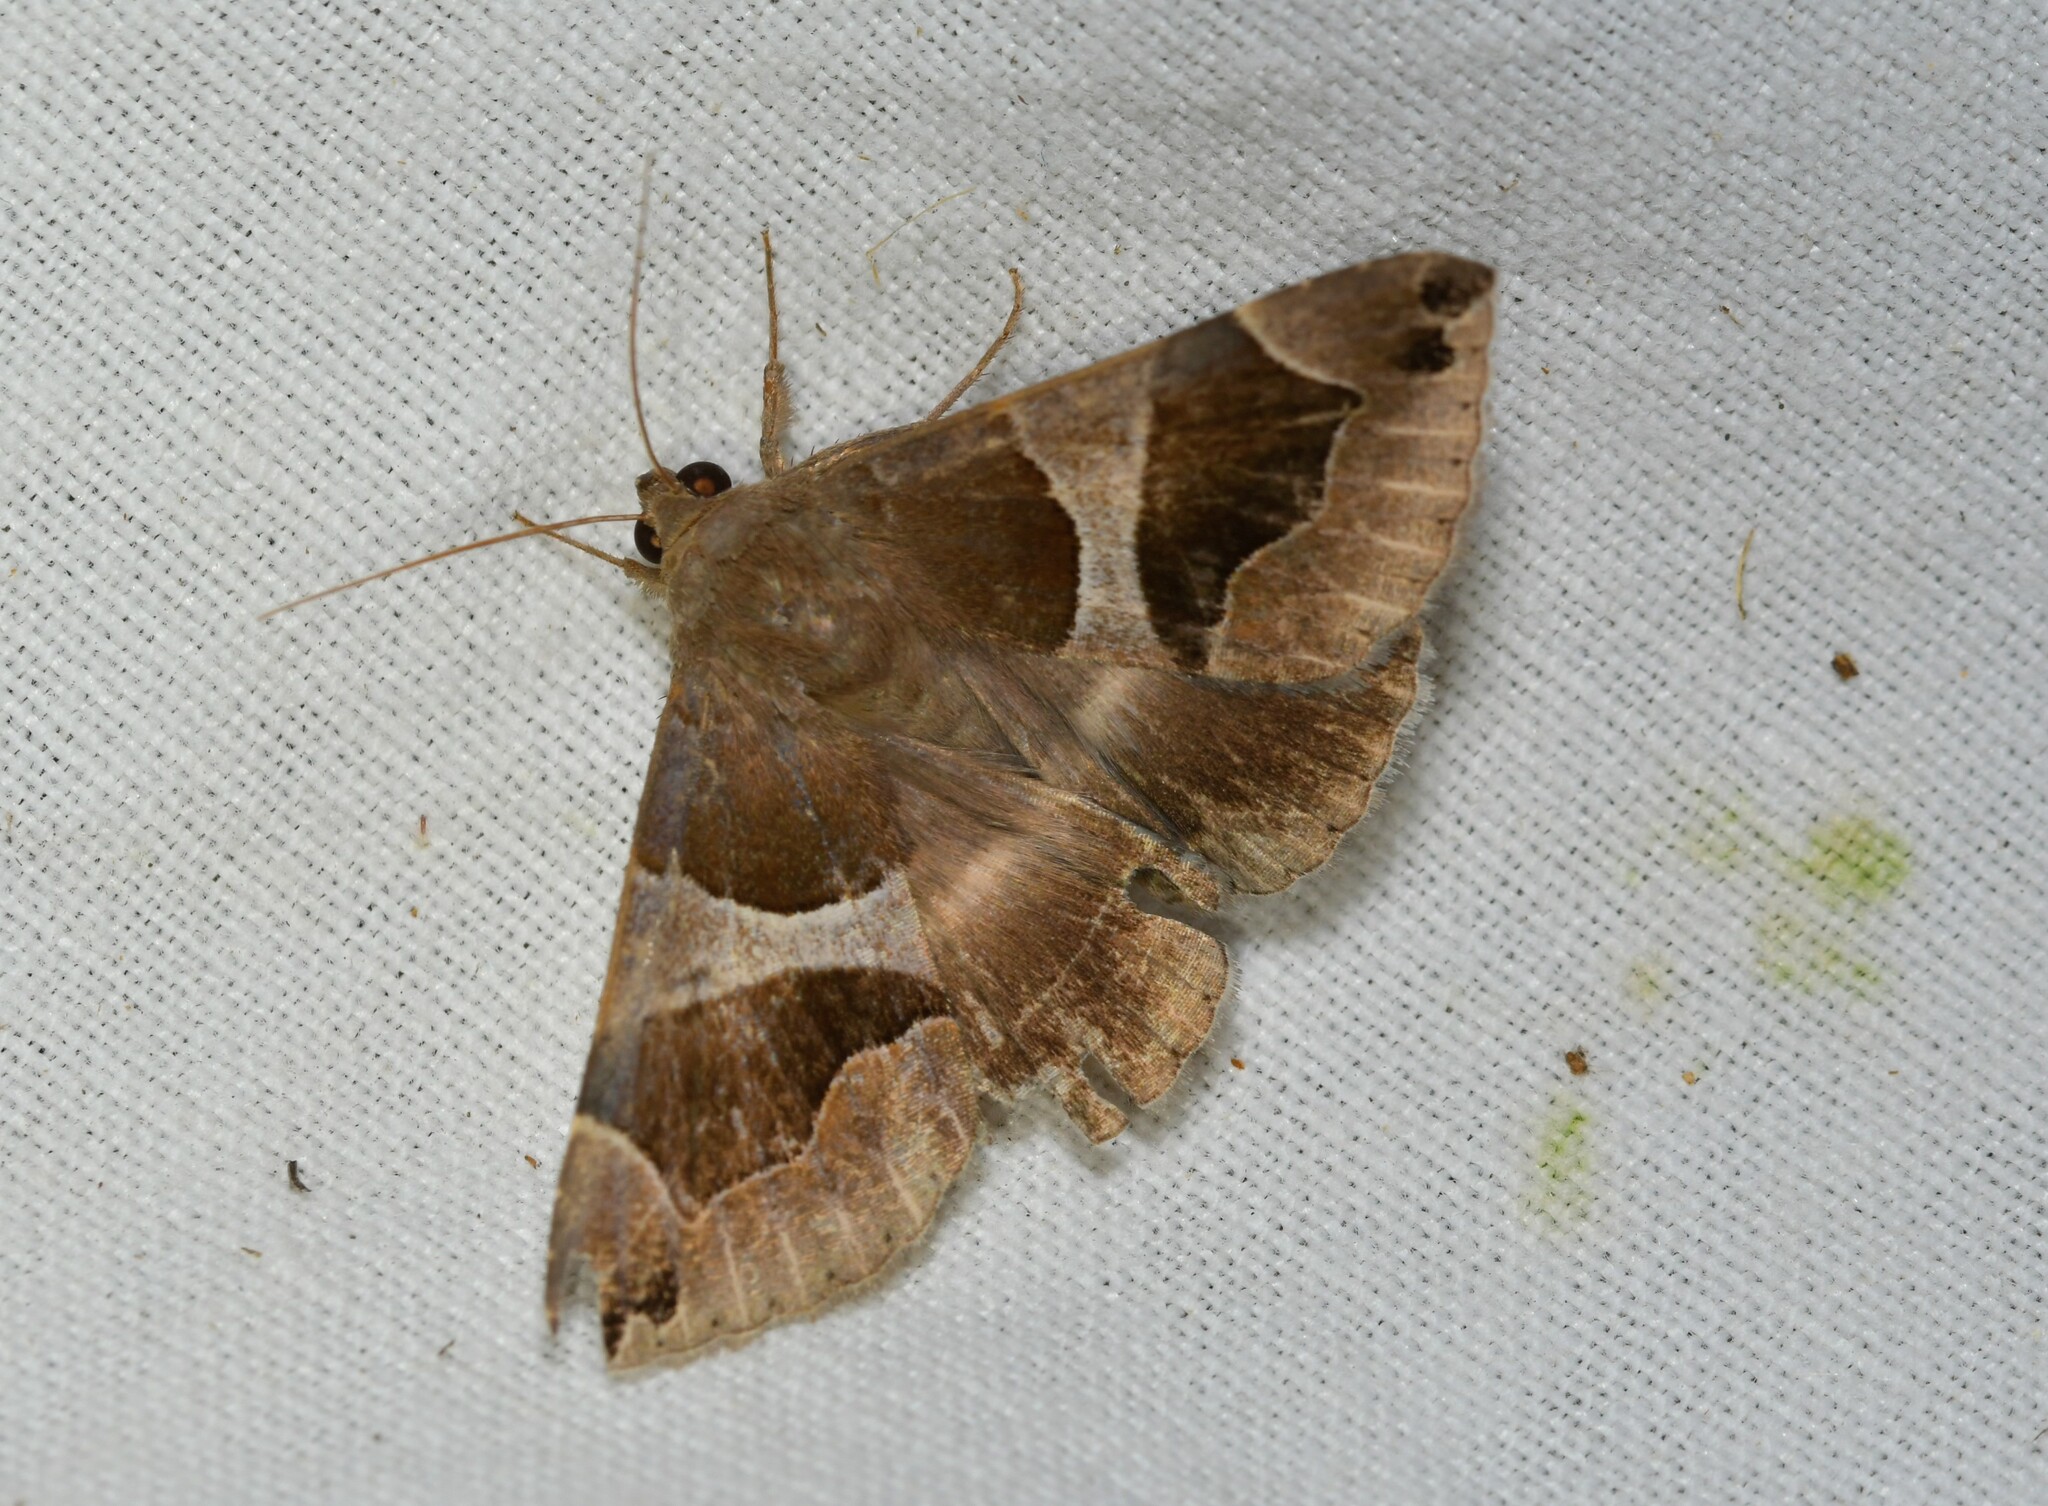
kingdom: Animalia
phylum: Arthropoda
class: Insecta
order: Lepidoptera
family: Erebidae
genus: Dysgonia
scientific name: Dysgonia algira
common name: Passenger
